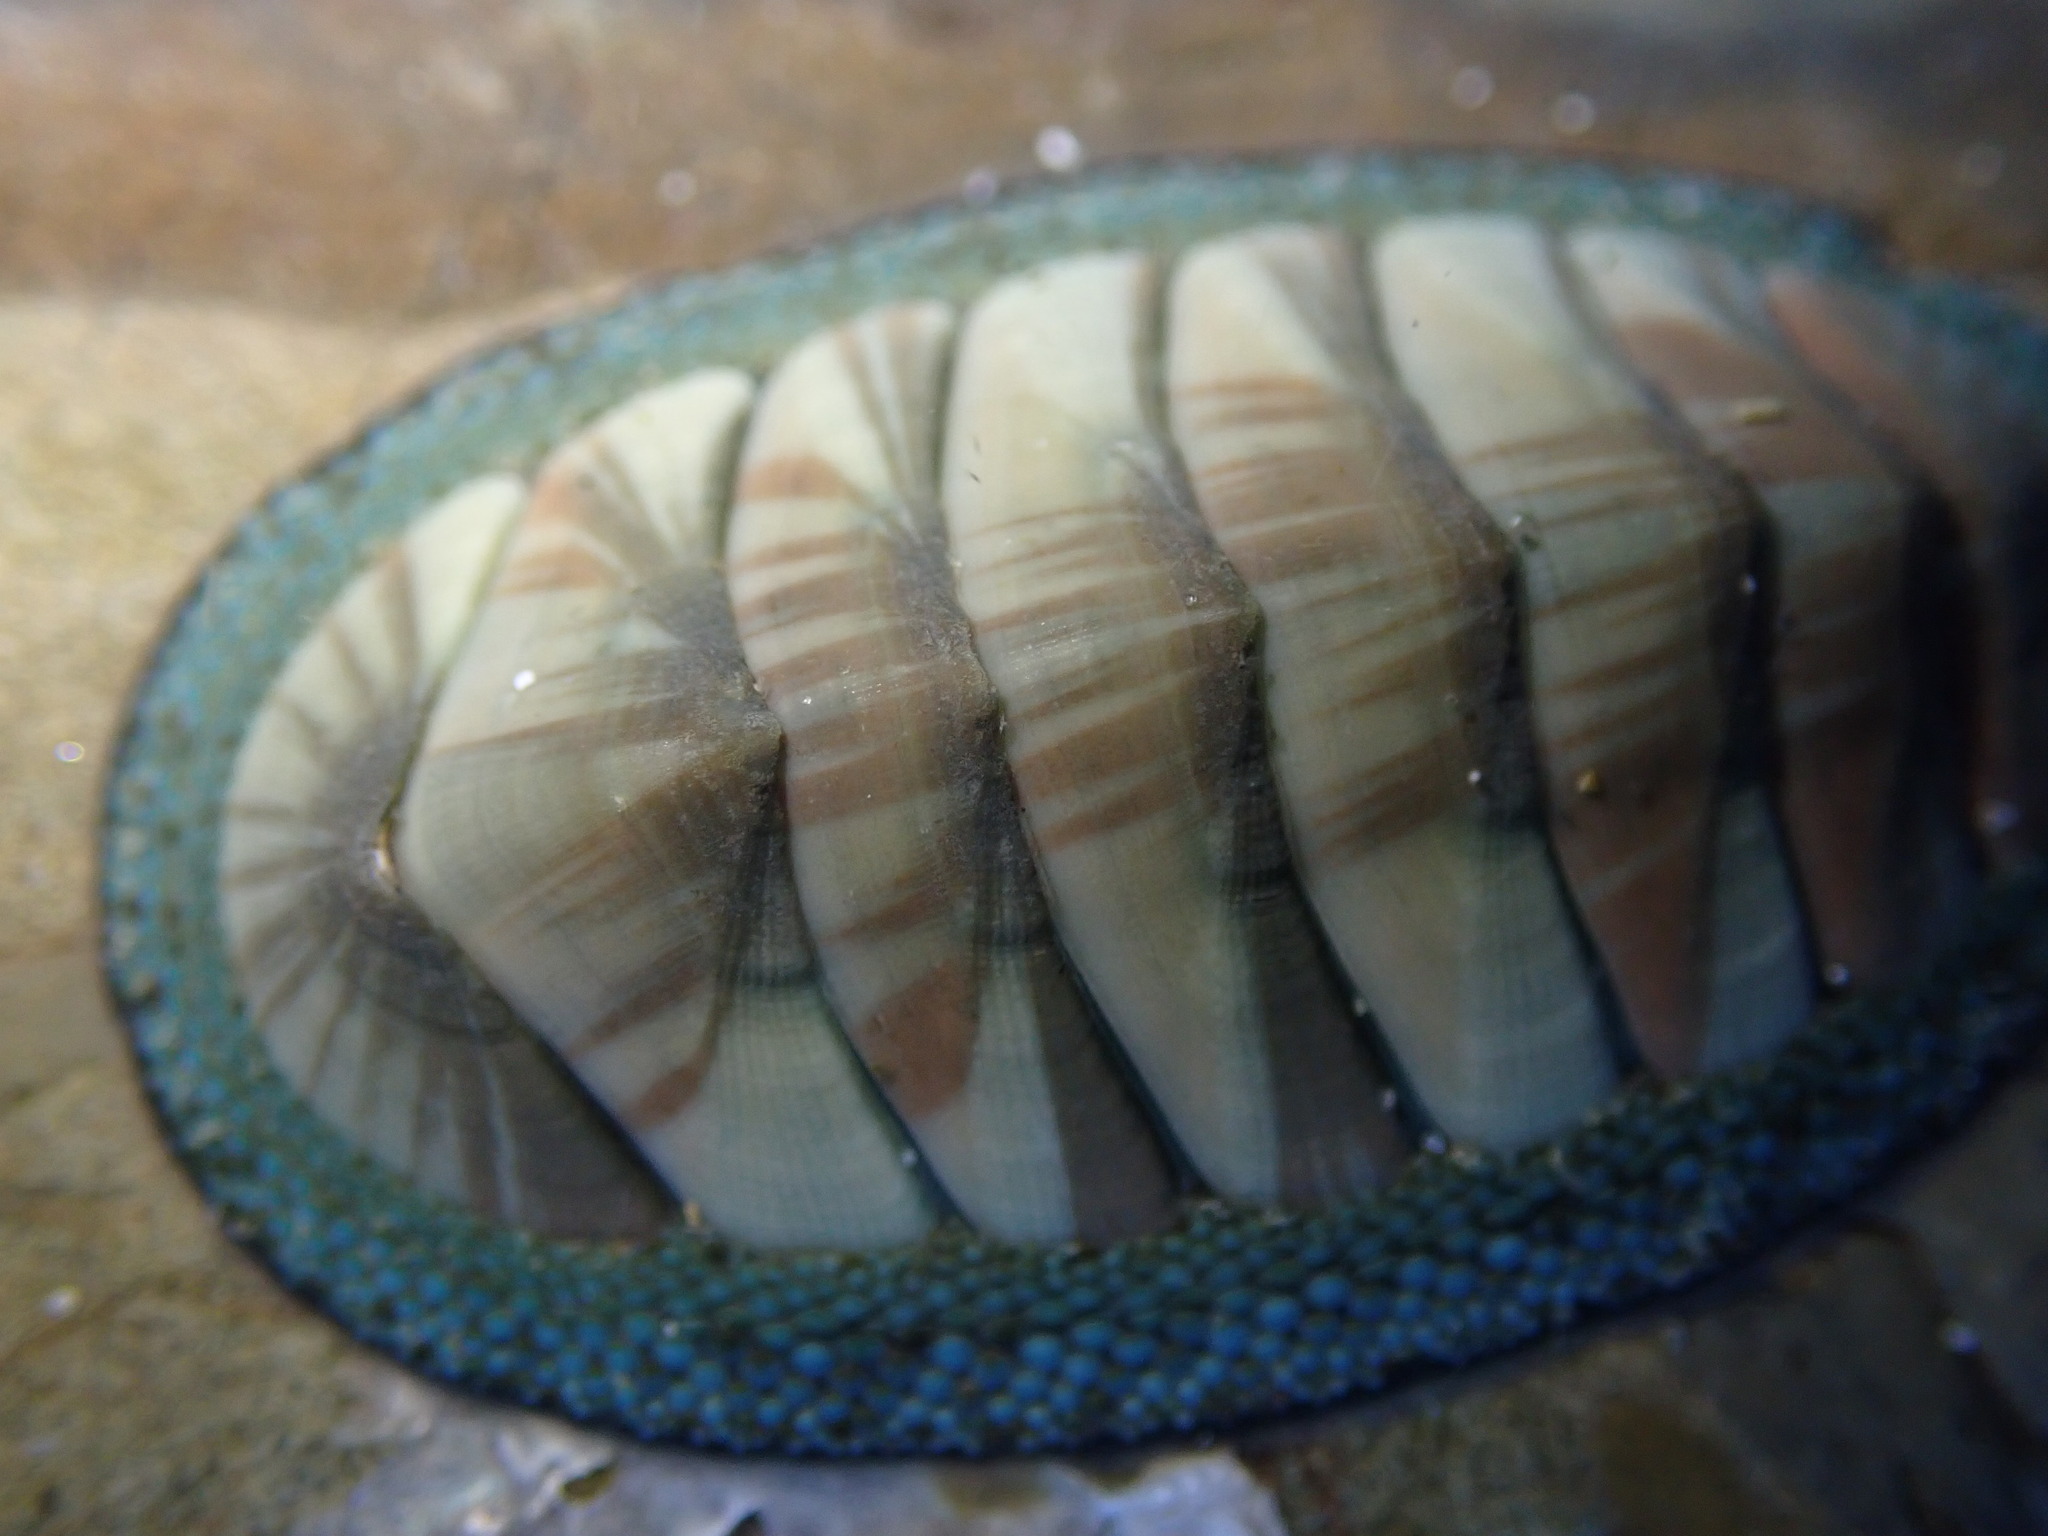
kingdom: Animalia
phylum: Mollusca
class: Polyplacophora
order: Chitonida
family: Chitonidae
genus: Chiton
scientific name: Chiton glaucus
